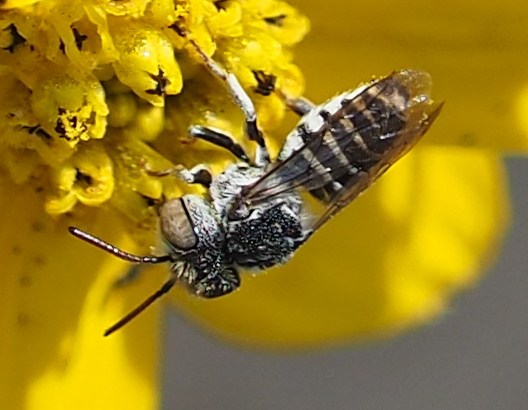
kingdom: Animalia
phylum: Arthropoda
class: Insecta
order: Hymenoptera
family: Megachilidae
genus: Coelioxys
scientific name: Coelioxys coturnix
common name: Red-tailed cuckoo-leaf-cutter bee
